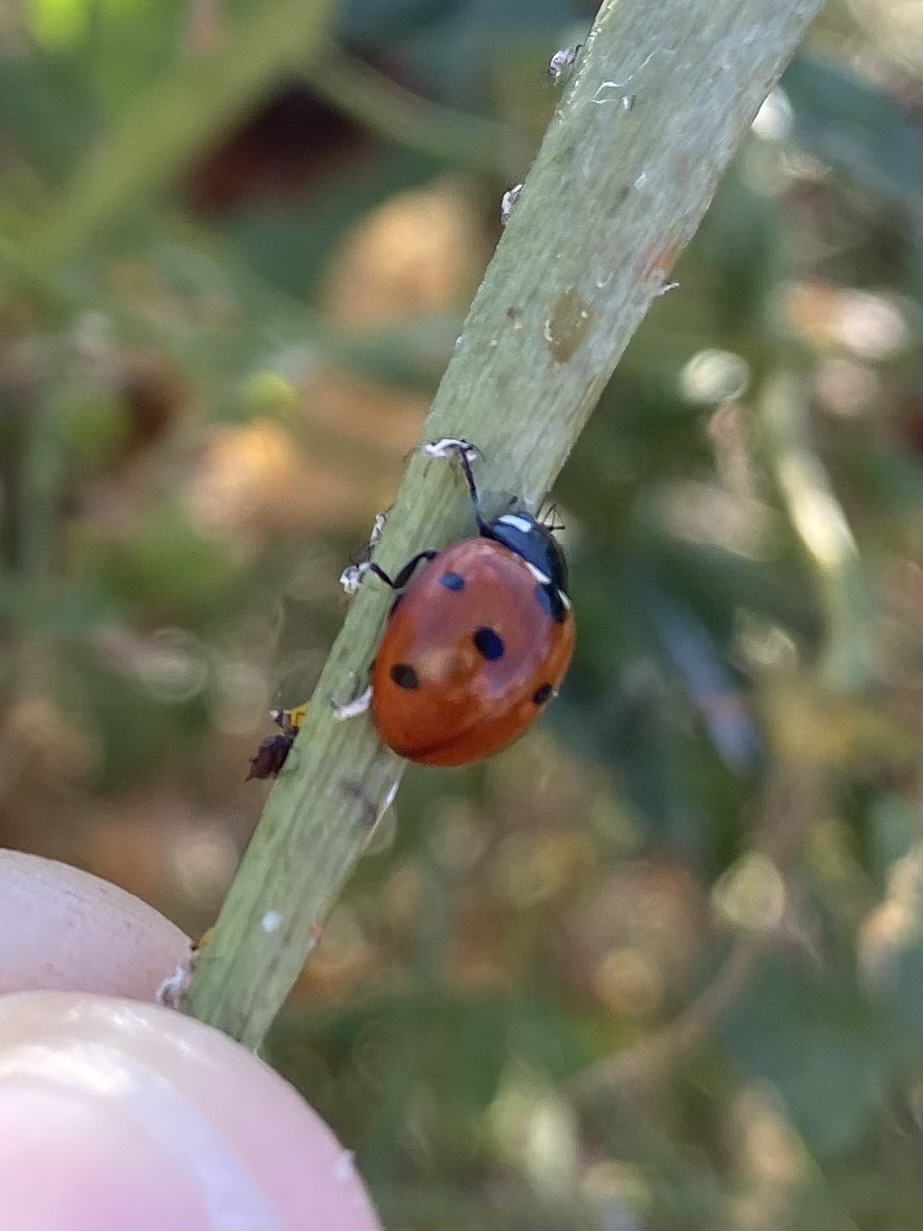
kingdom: Animalia
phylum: Arthropoda
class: Insecta
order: Coleoptera
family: Coccinellidae
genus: Coccinella
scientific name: Coccinella septempunctata
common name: Sevenspotted lady beetle
